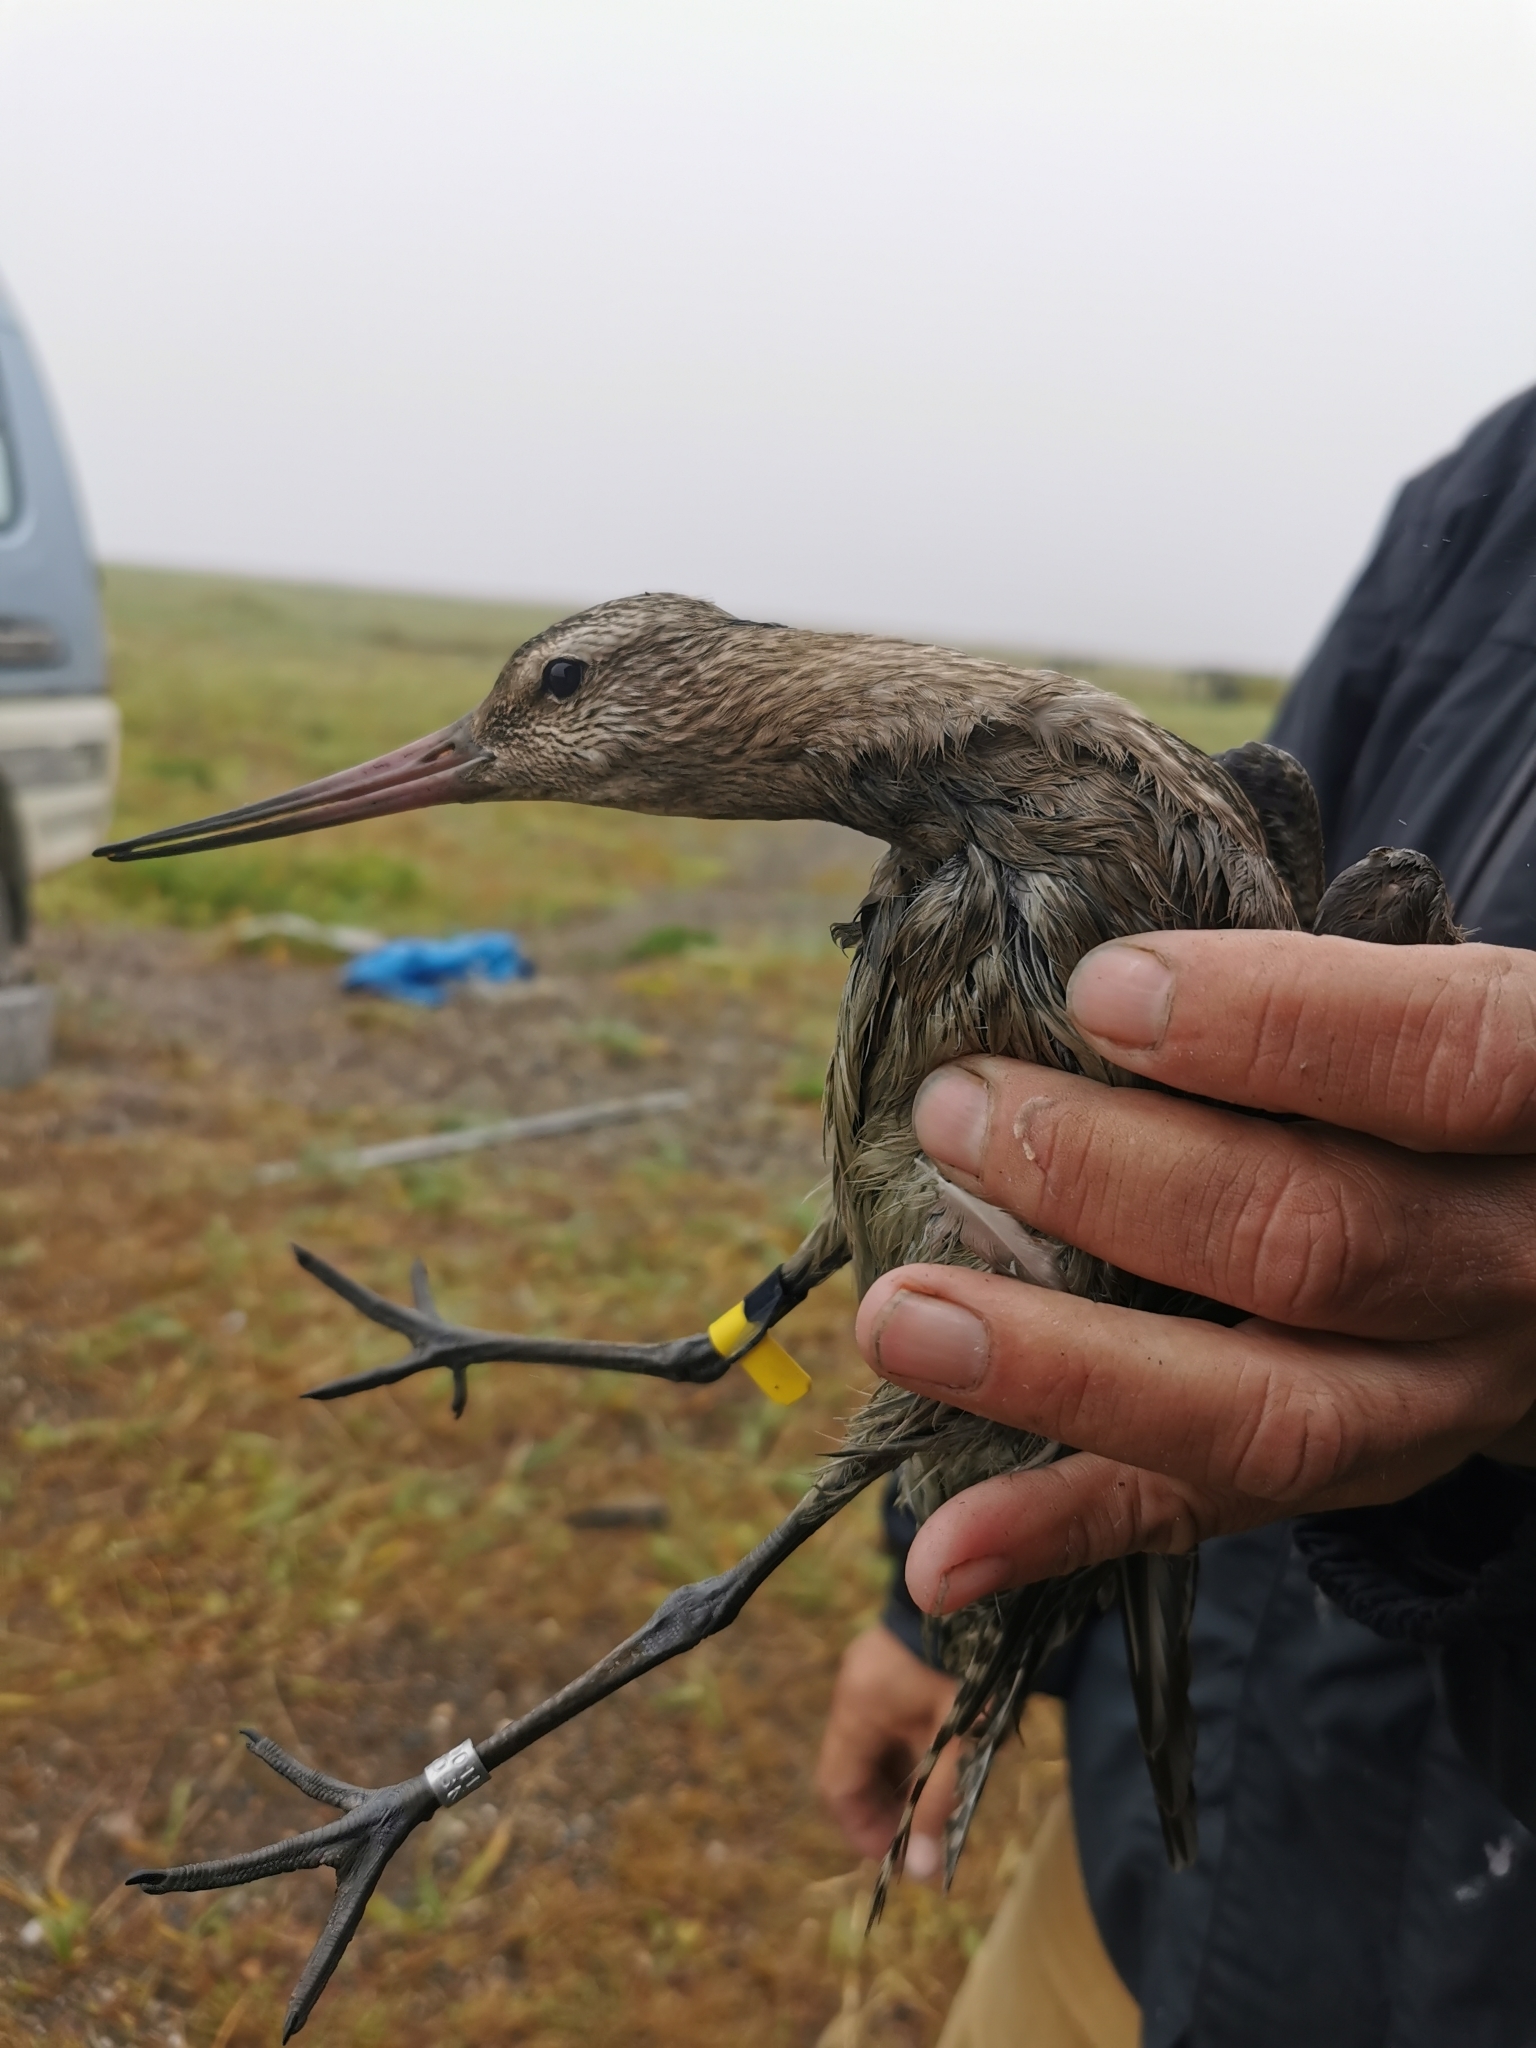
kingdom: Animalia
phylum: Chordata
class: Aves
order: Charadriiformes
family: Scolopacidae
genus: Limosa
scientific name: Limosa lapponica
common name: Bar-tailed godwit
